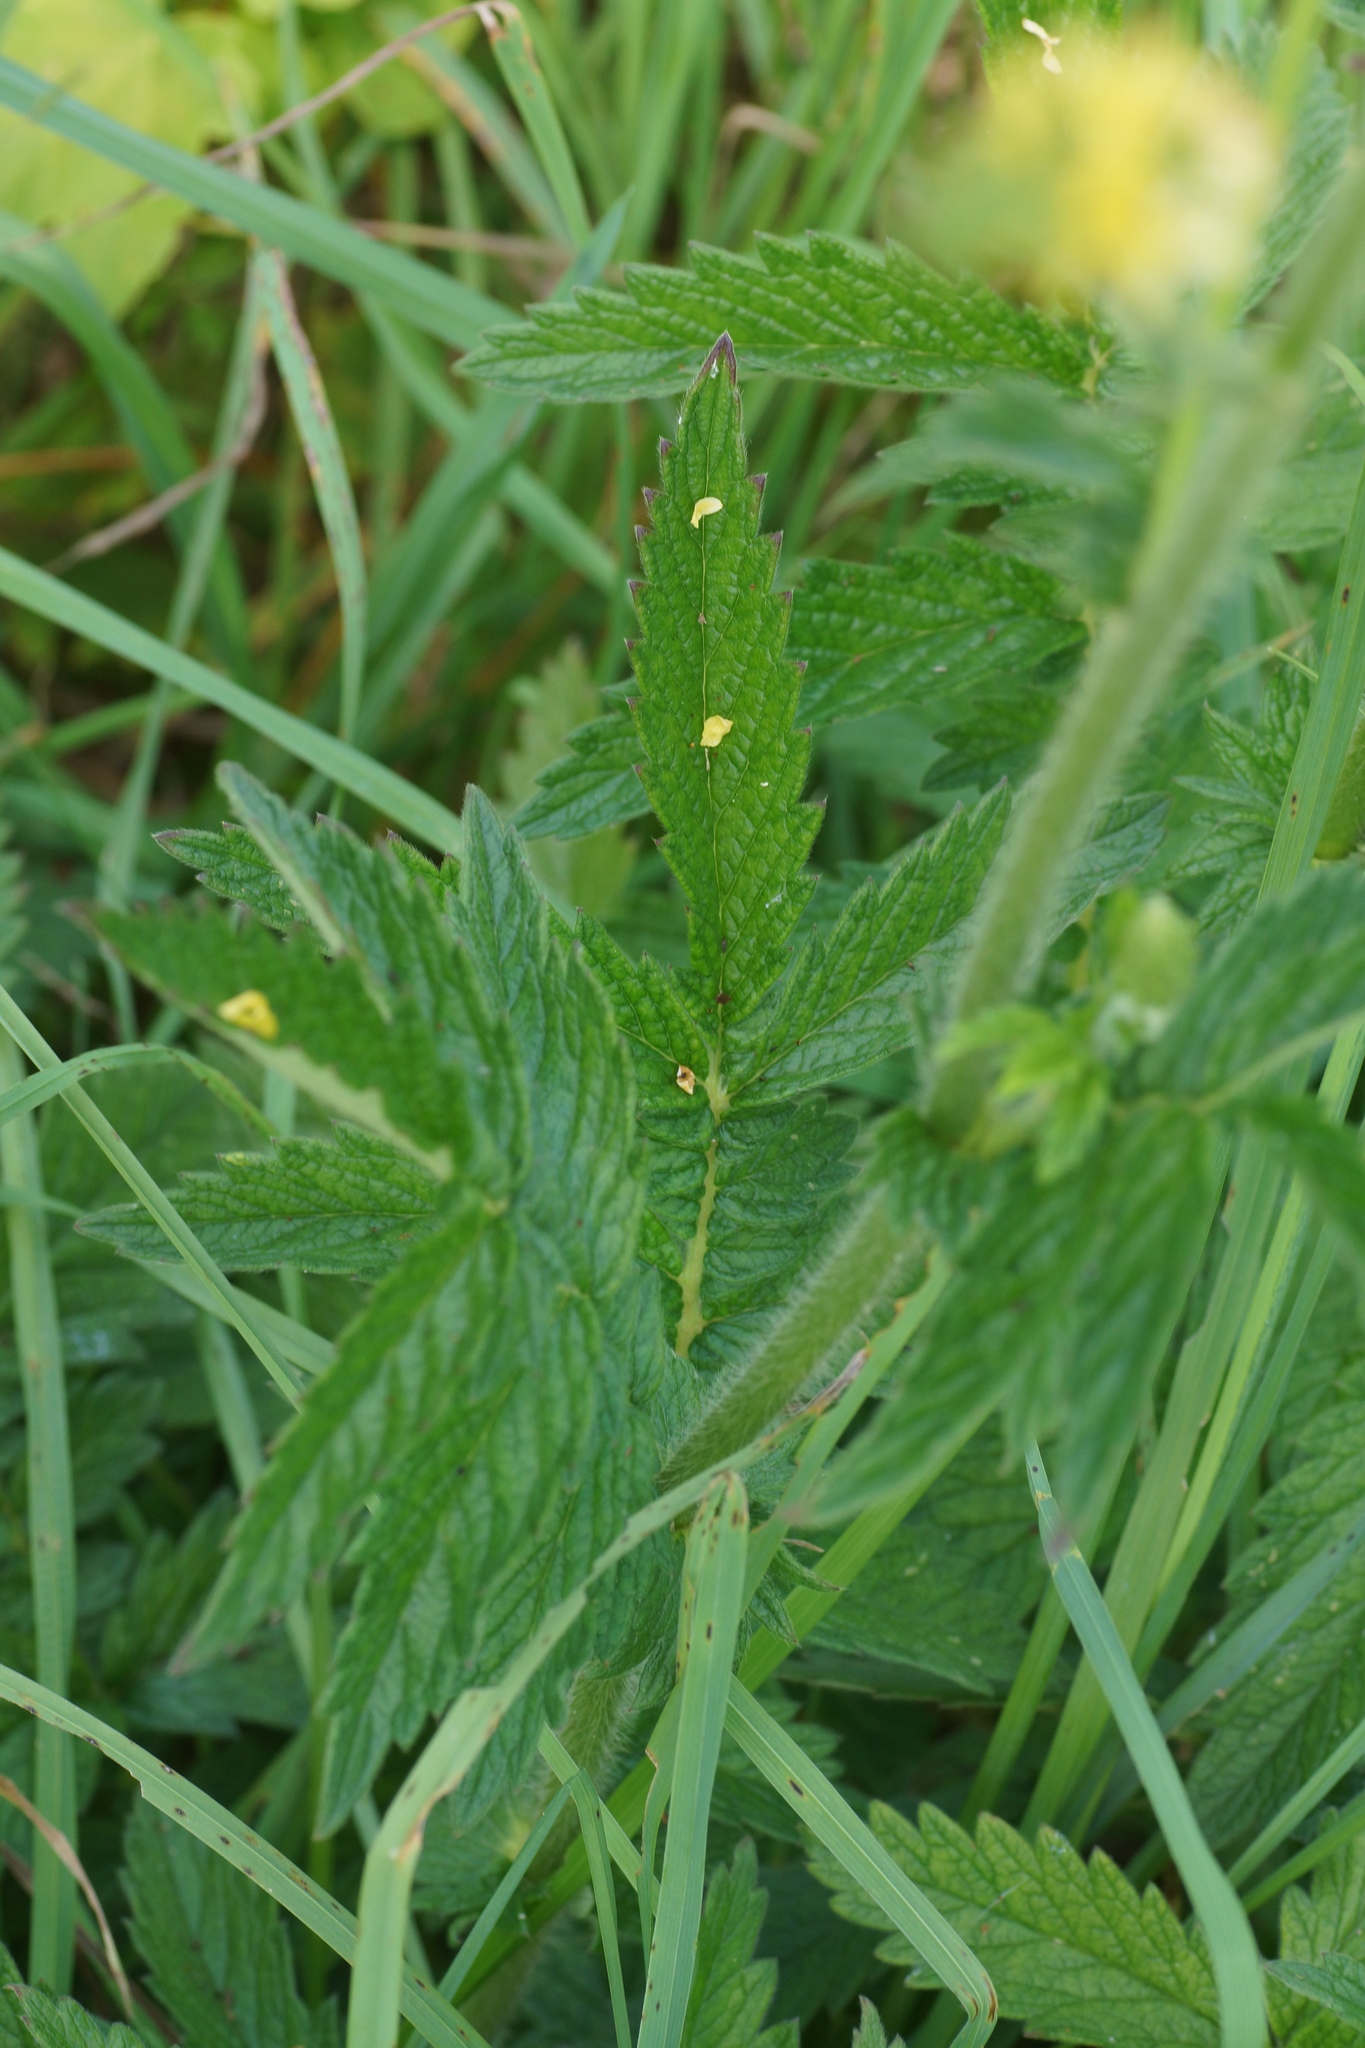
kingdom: Plantae
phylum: Tracheophyta
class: Magnoliopsida
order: Rosales
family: Rosaceae
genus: Agrimonia
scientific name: Agrimonia eupatoria
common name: Agrimony
